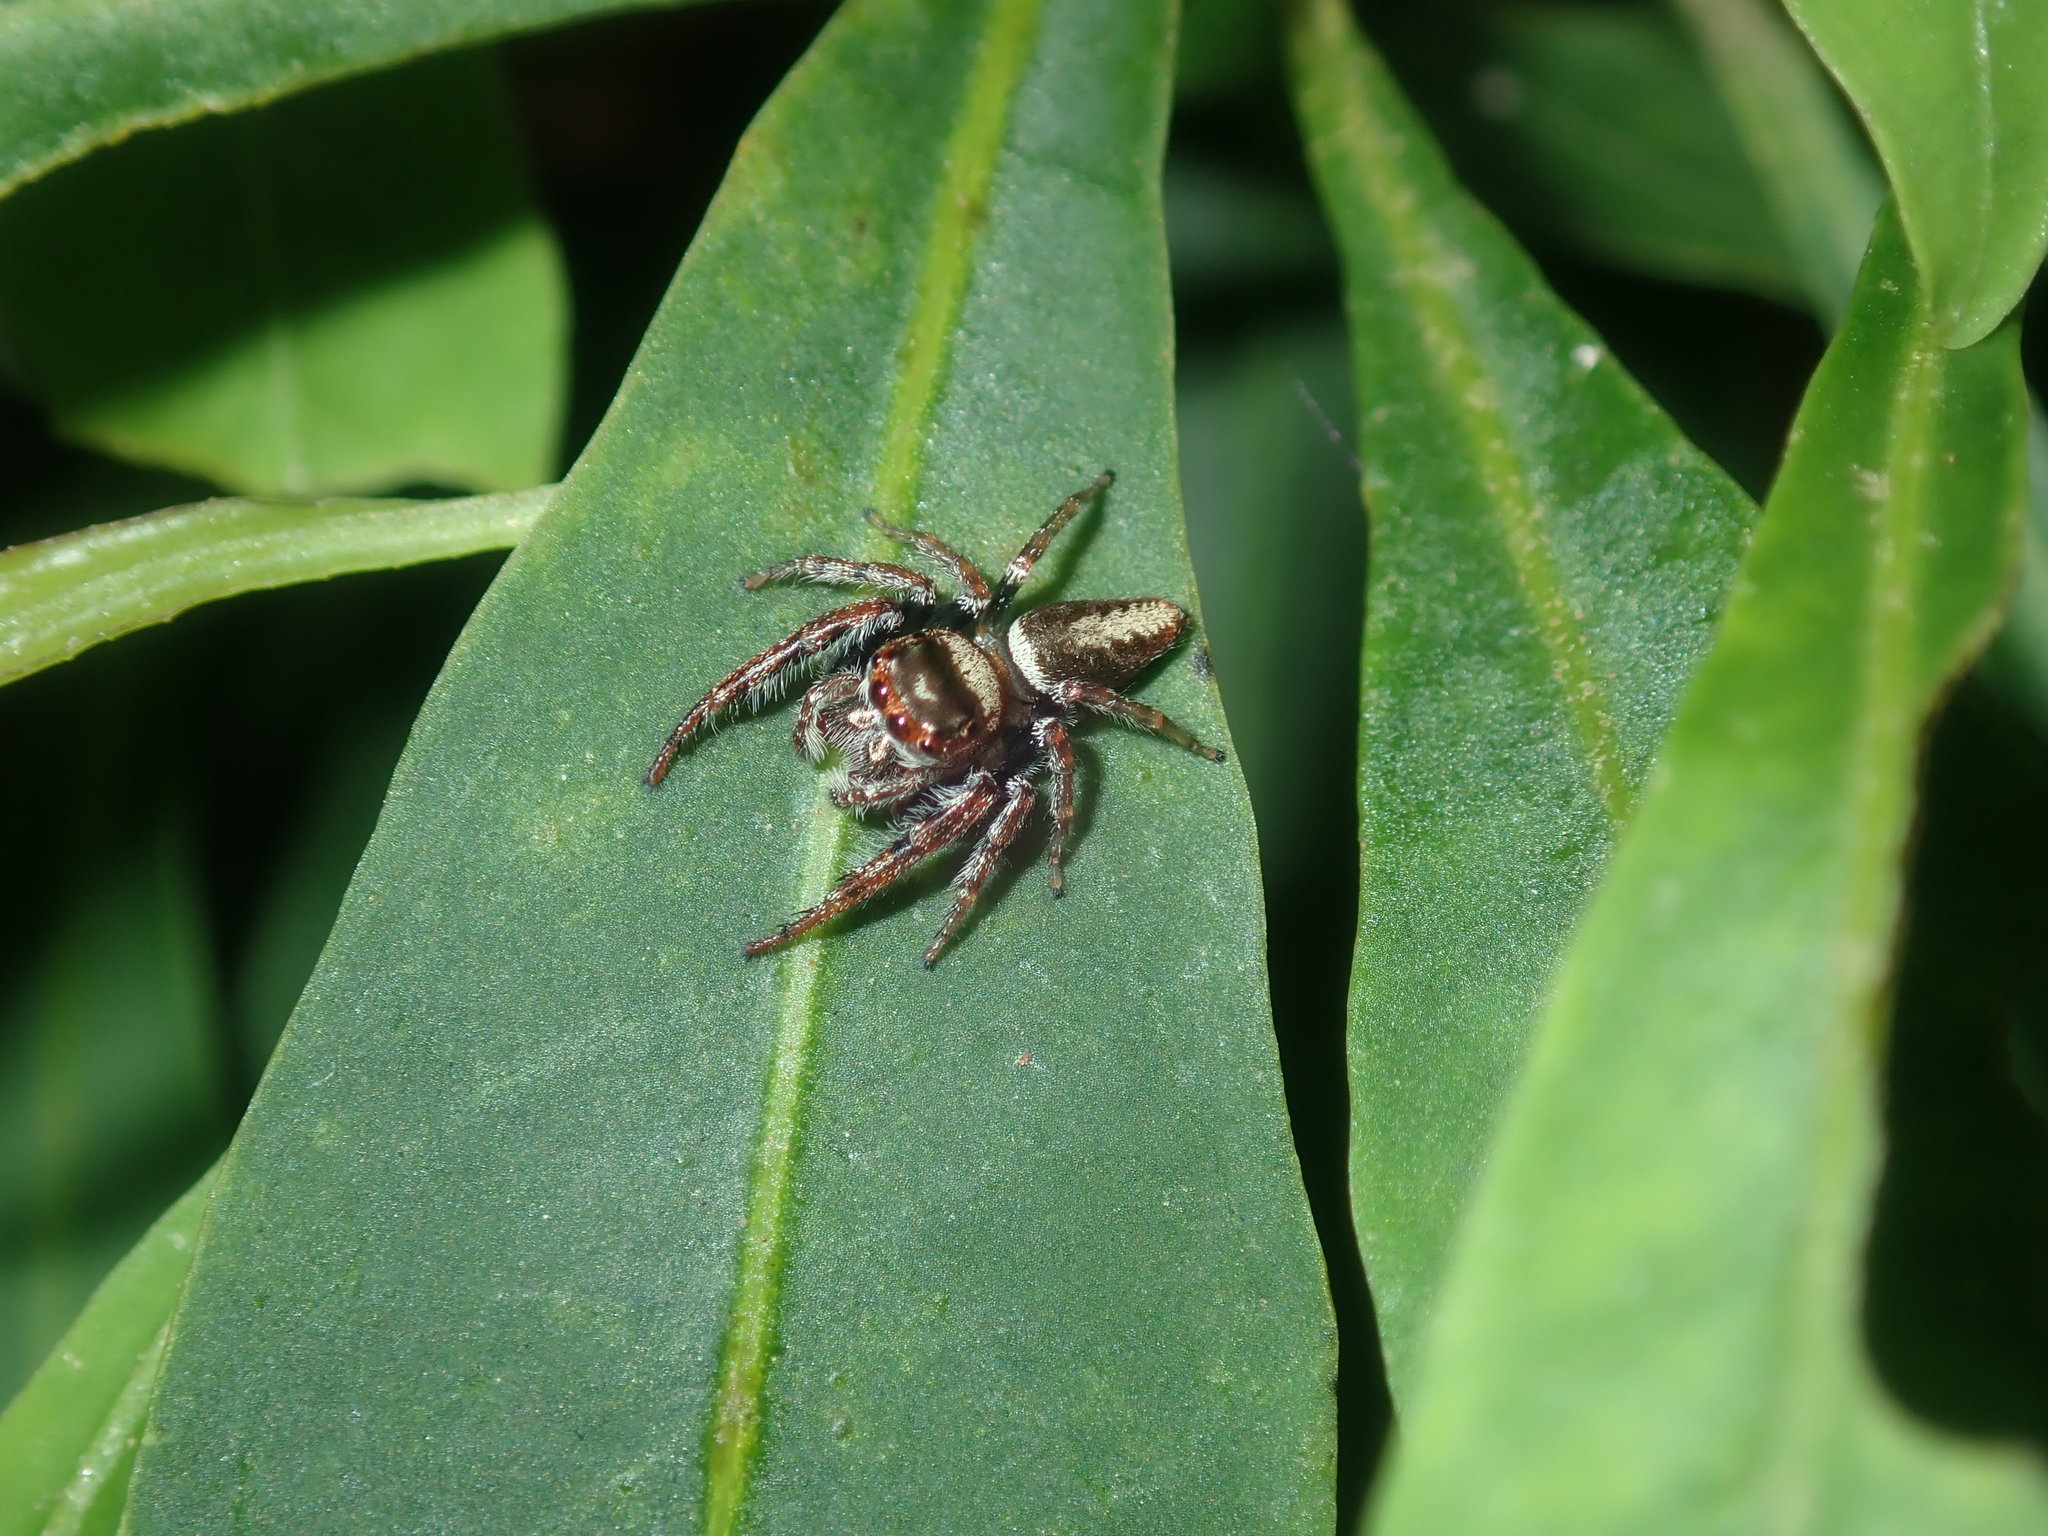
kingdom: Animalia
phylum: Arthropoda
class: Arachnida
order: Araneae
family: Salticidae
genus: Opisthoncus
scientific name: Opisthoncus nigrofemoratus
